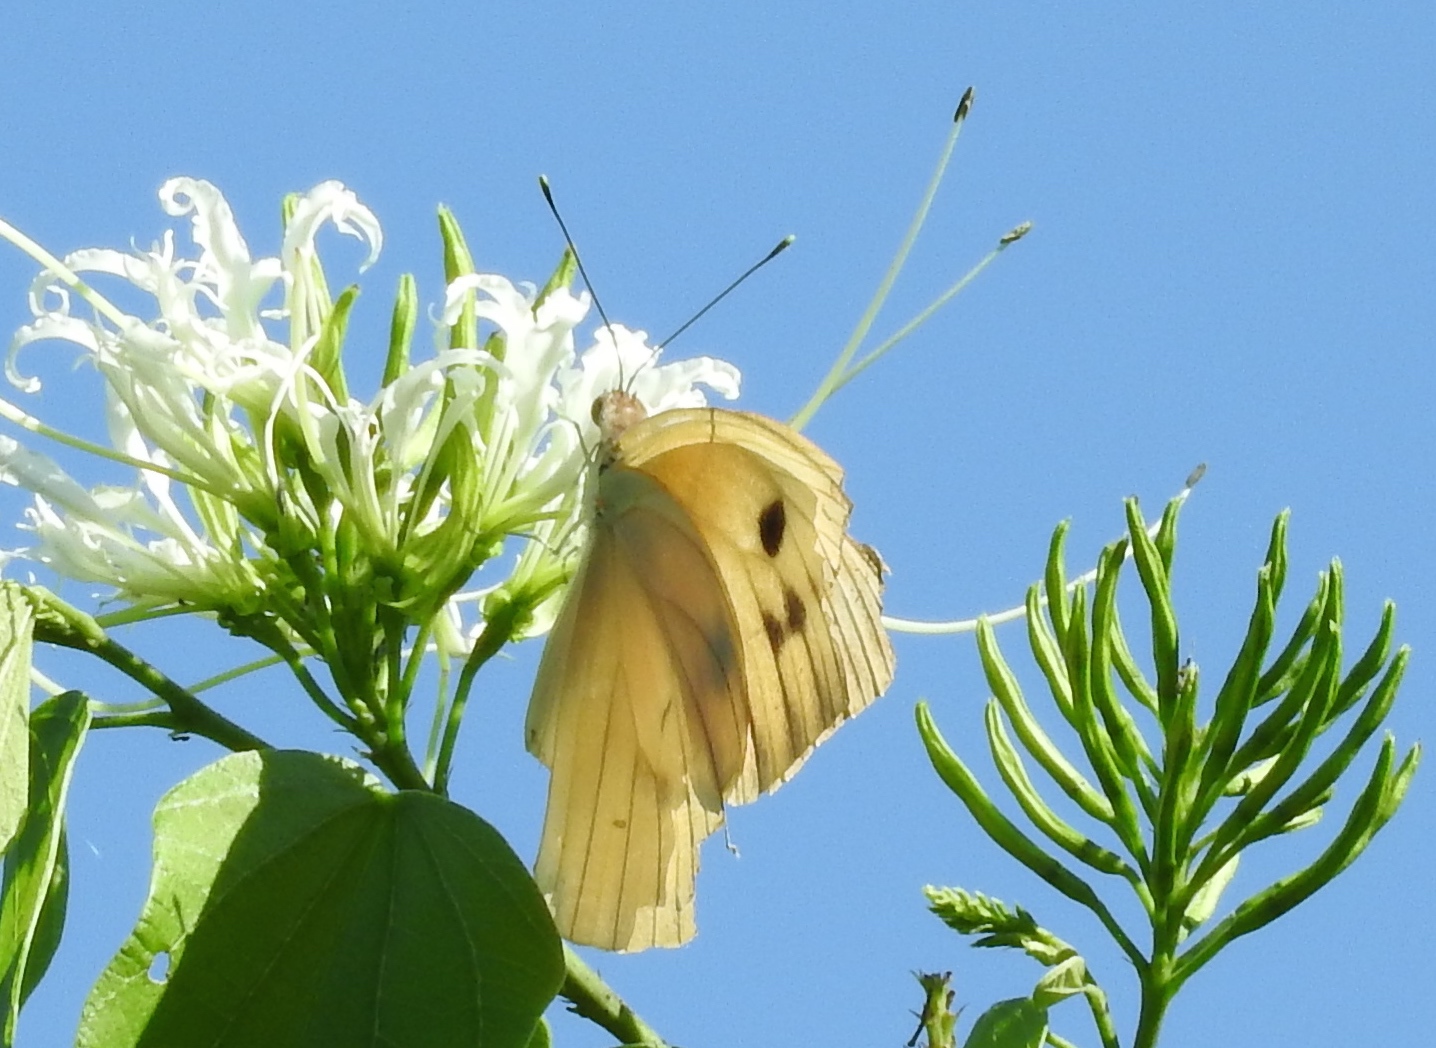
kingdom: Animalia
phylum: Arthropoda
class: Insecta
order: Lepidoptera
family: Pieridae
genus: Ganyra
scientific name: Ganyra josephina
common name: Giant white
